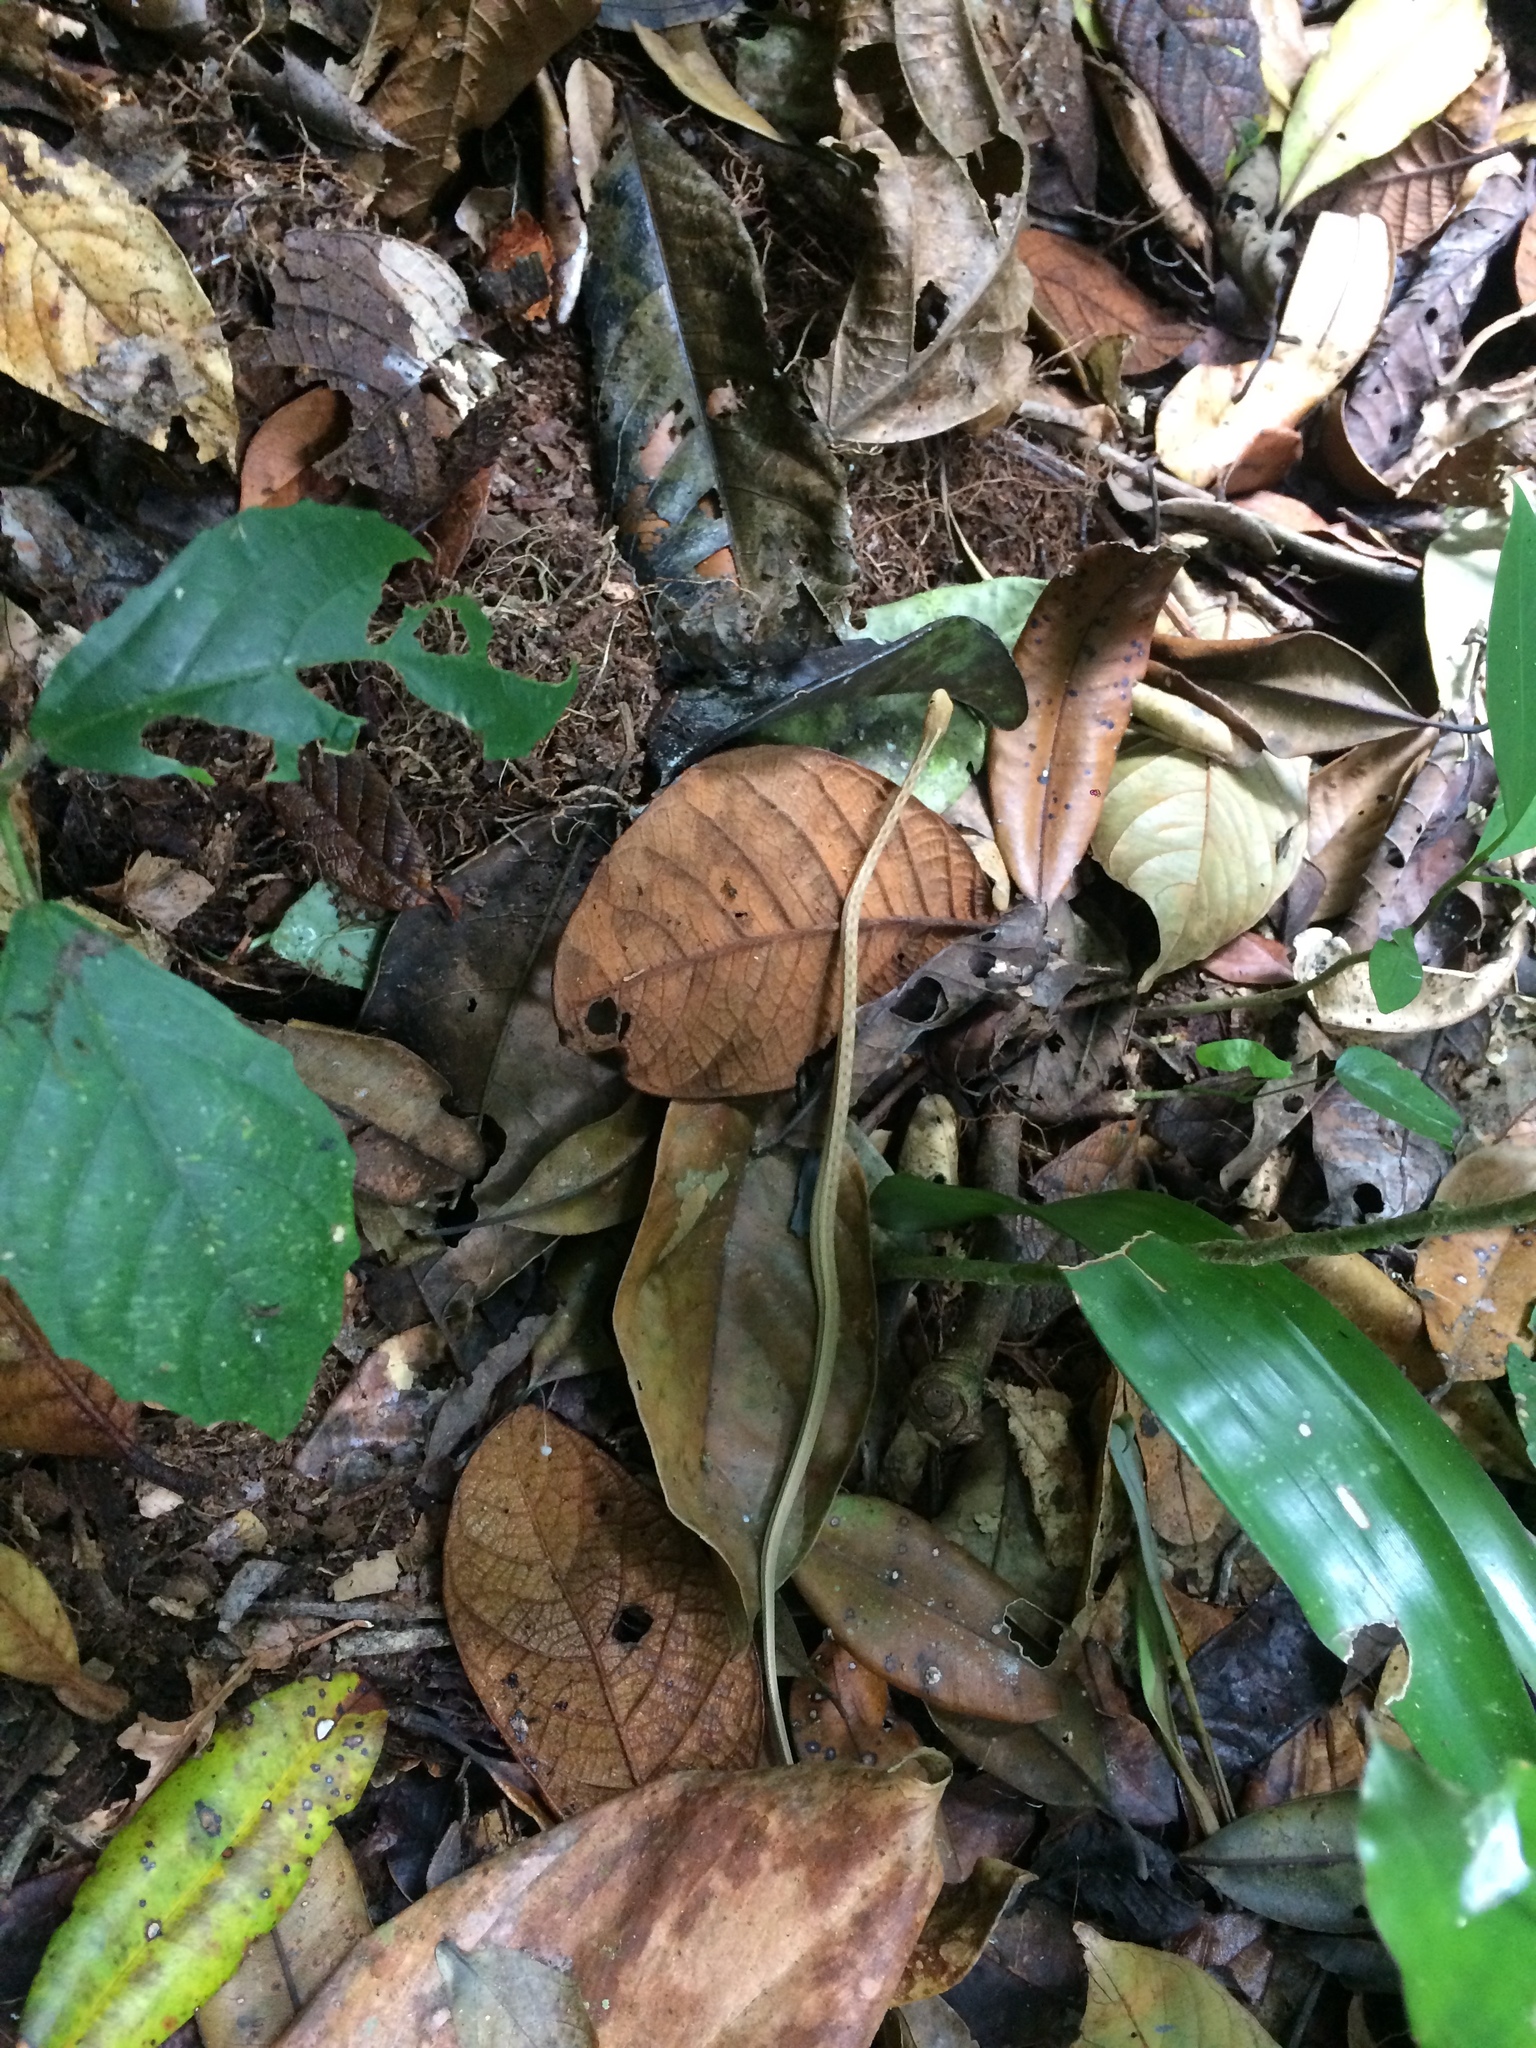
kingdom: Animalia
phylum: Chordata
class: Squamata
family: Colubridae
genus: Thamnodynastes
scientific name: Thamnodynastes pallidus
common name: Amazon coastal house snake
